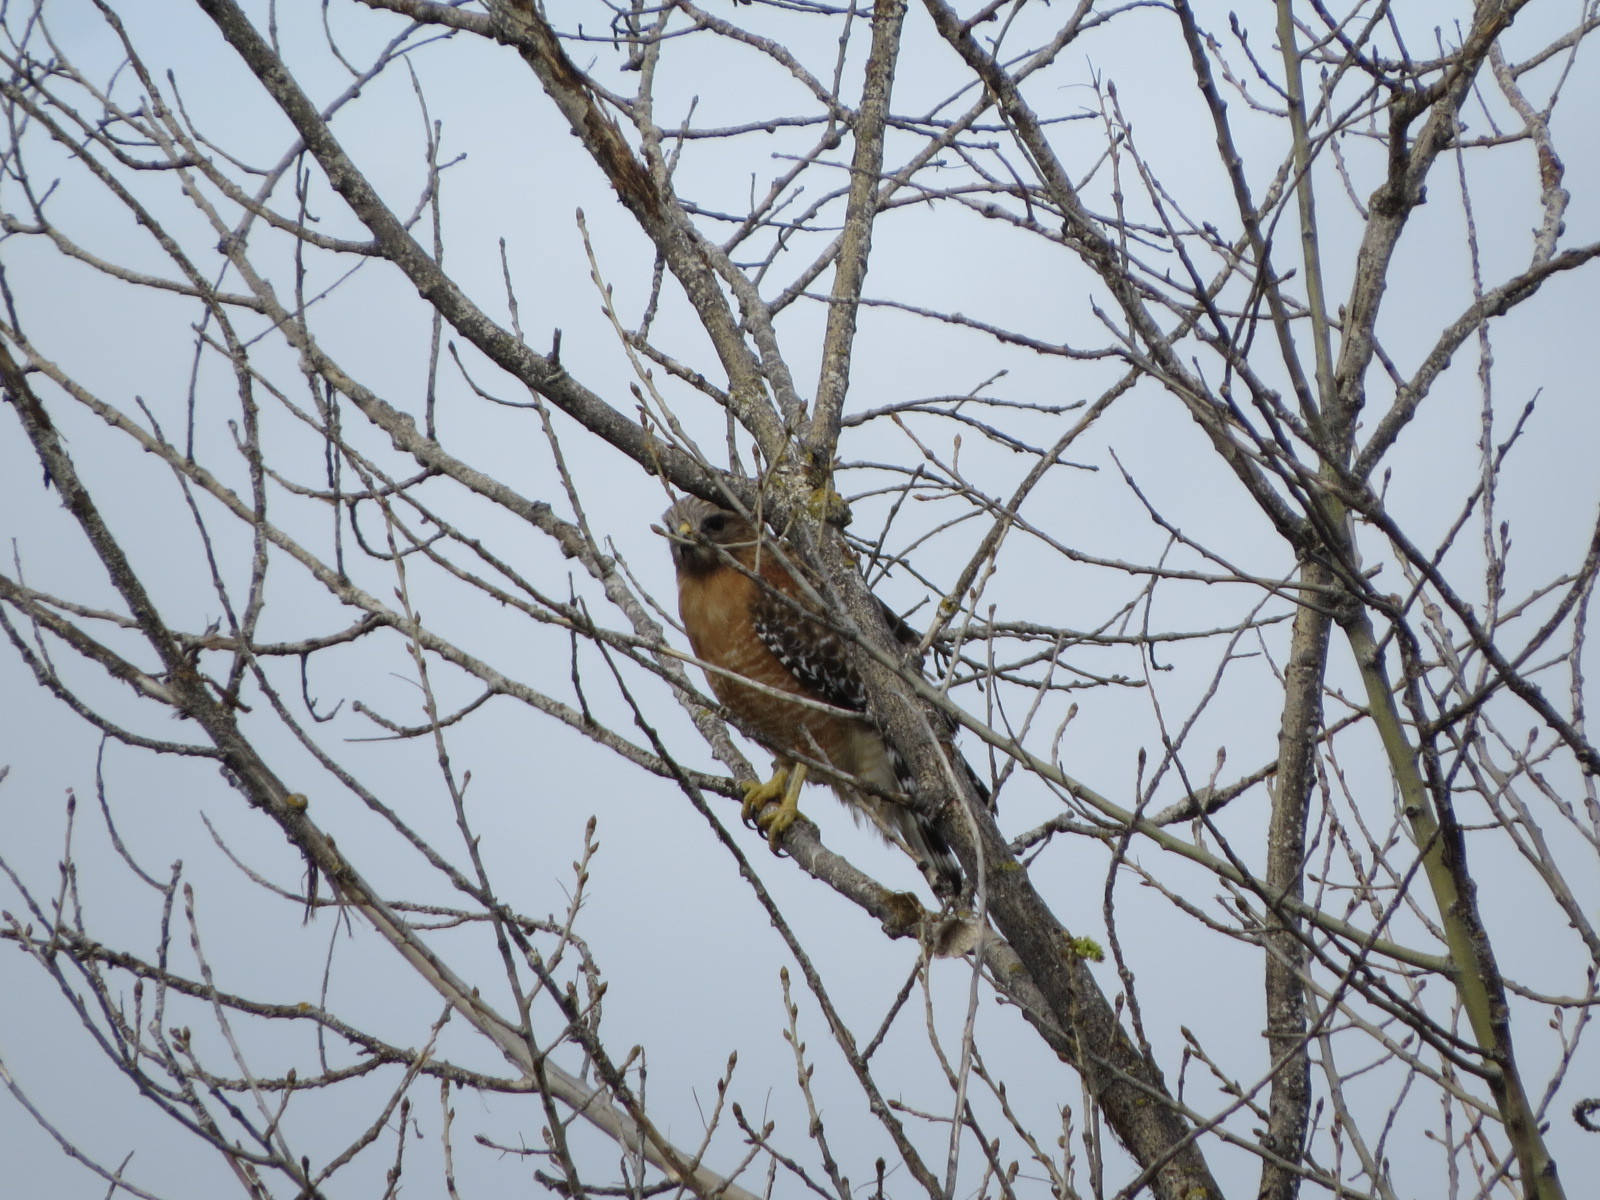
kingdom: Animalia
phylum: Chordata
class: Aves
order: Accipitriformes
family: Accipitridae
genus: Buteo
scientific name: Buteo lineatus
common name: Red-shouldered hawk
